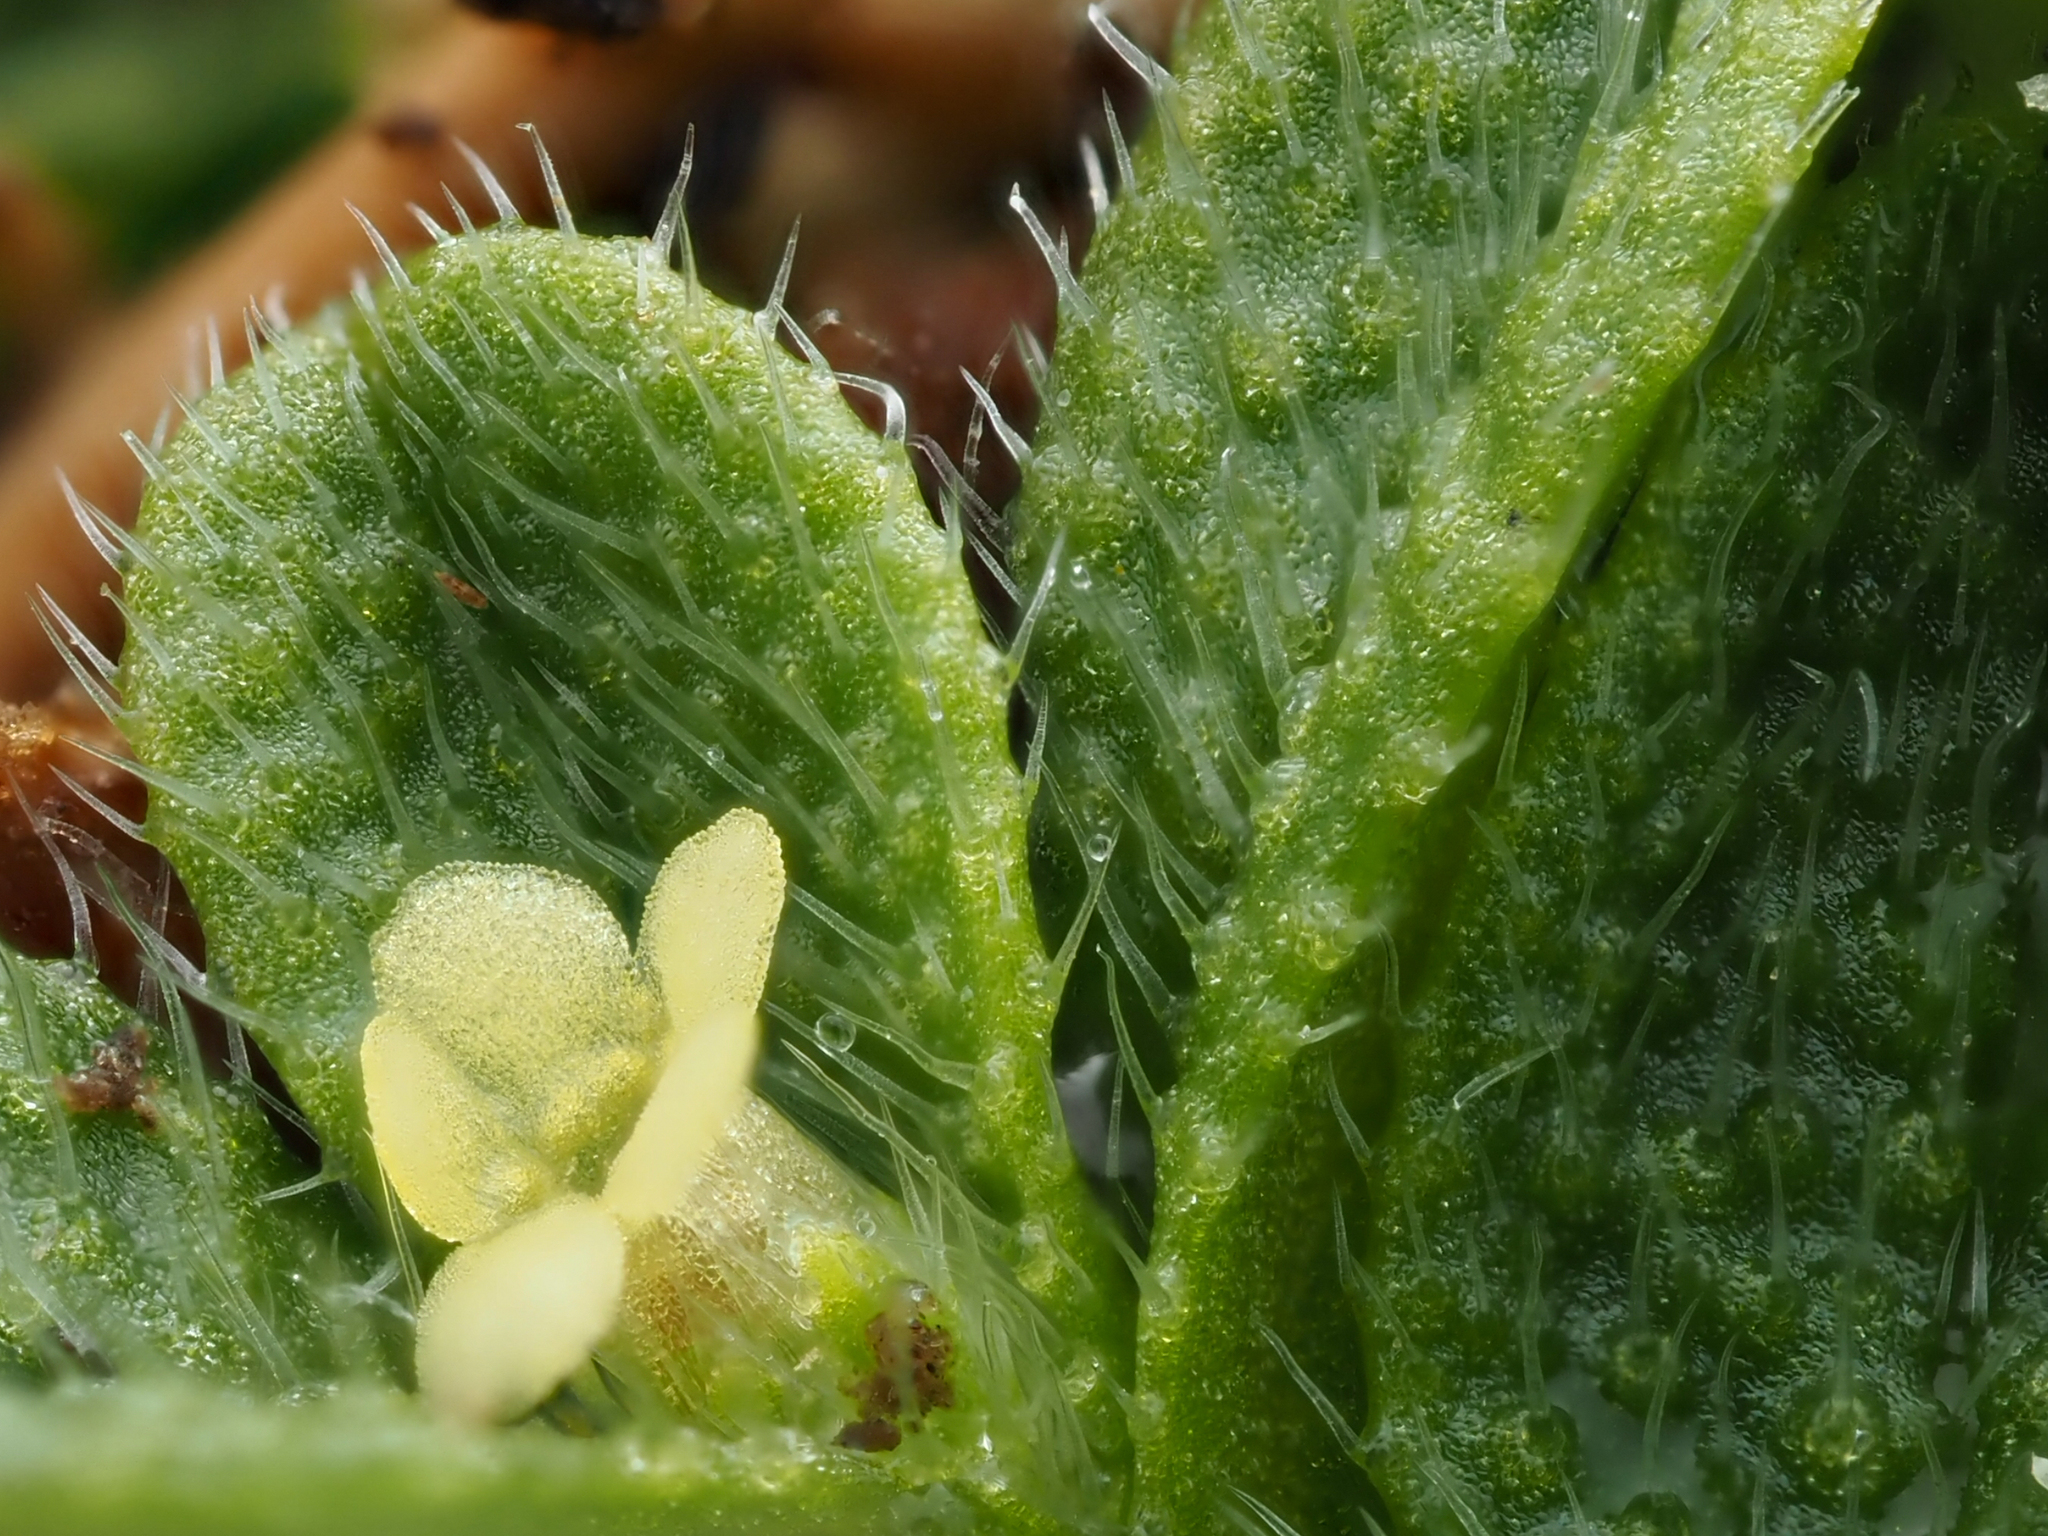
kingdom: Plantae
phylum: Tracheophyta
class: Magnoliopsida
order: Boraginales
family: Boraginaceae
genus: Myosotis
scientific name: Myosotis brevis
